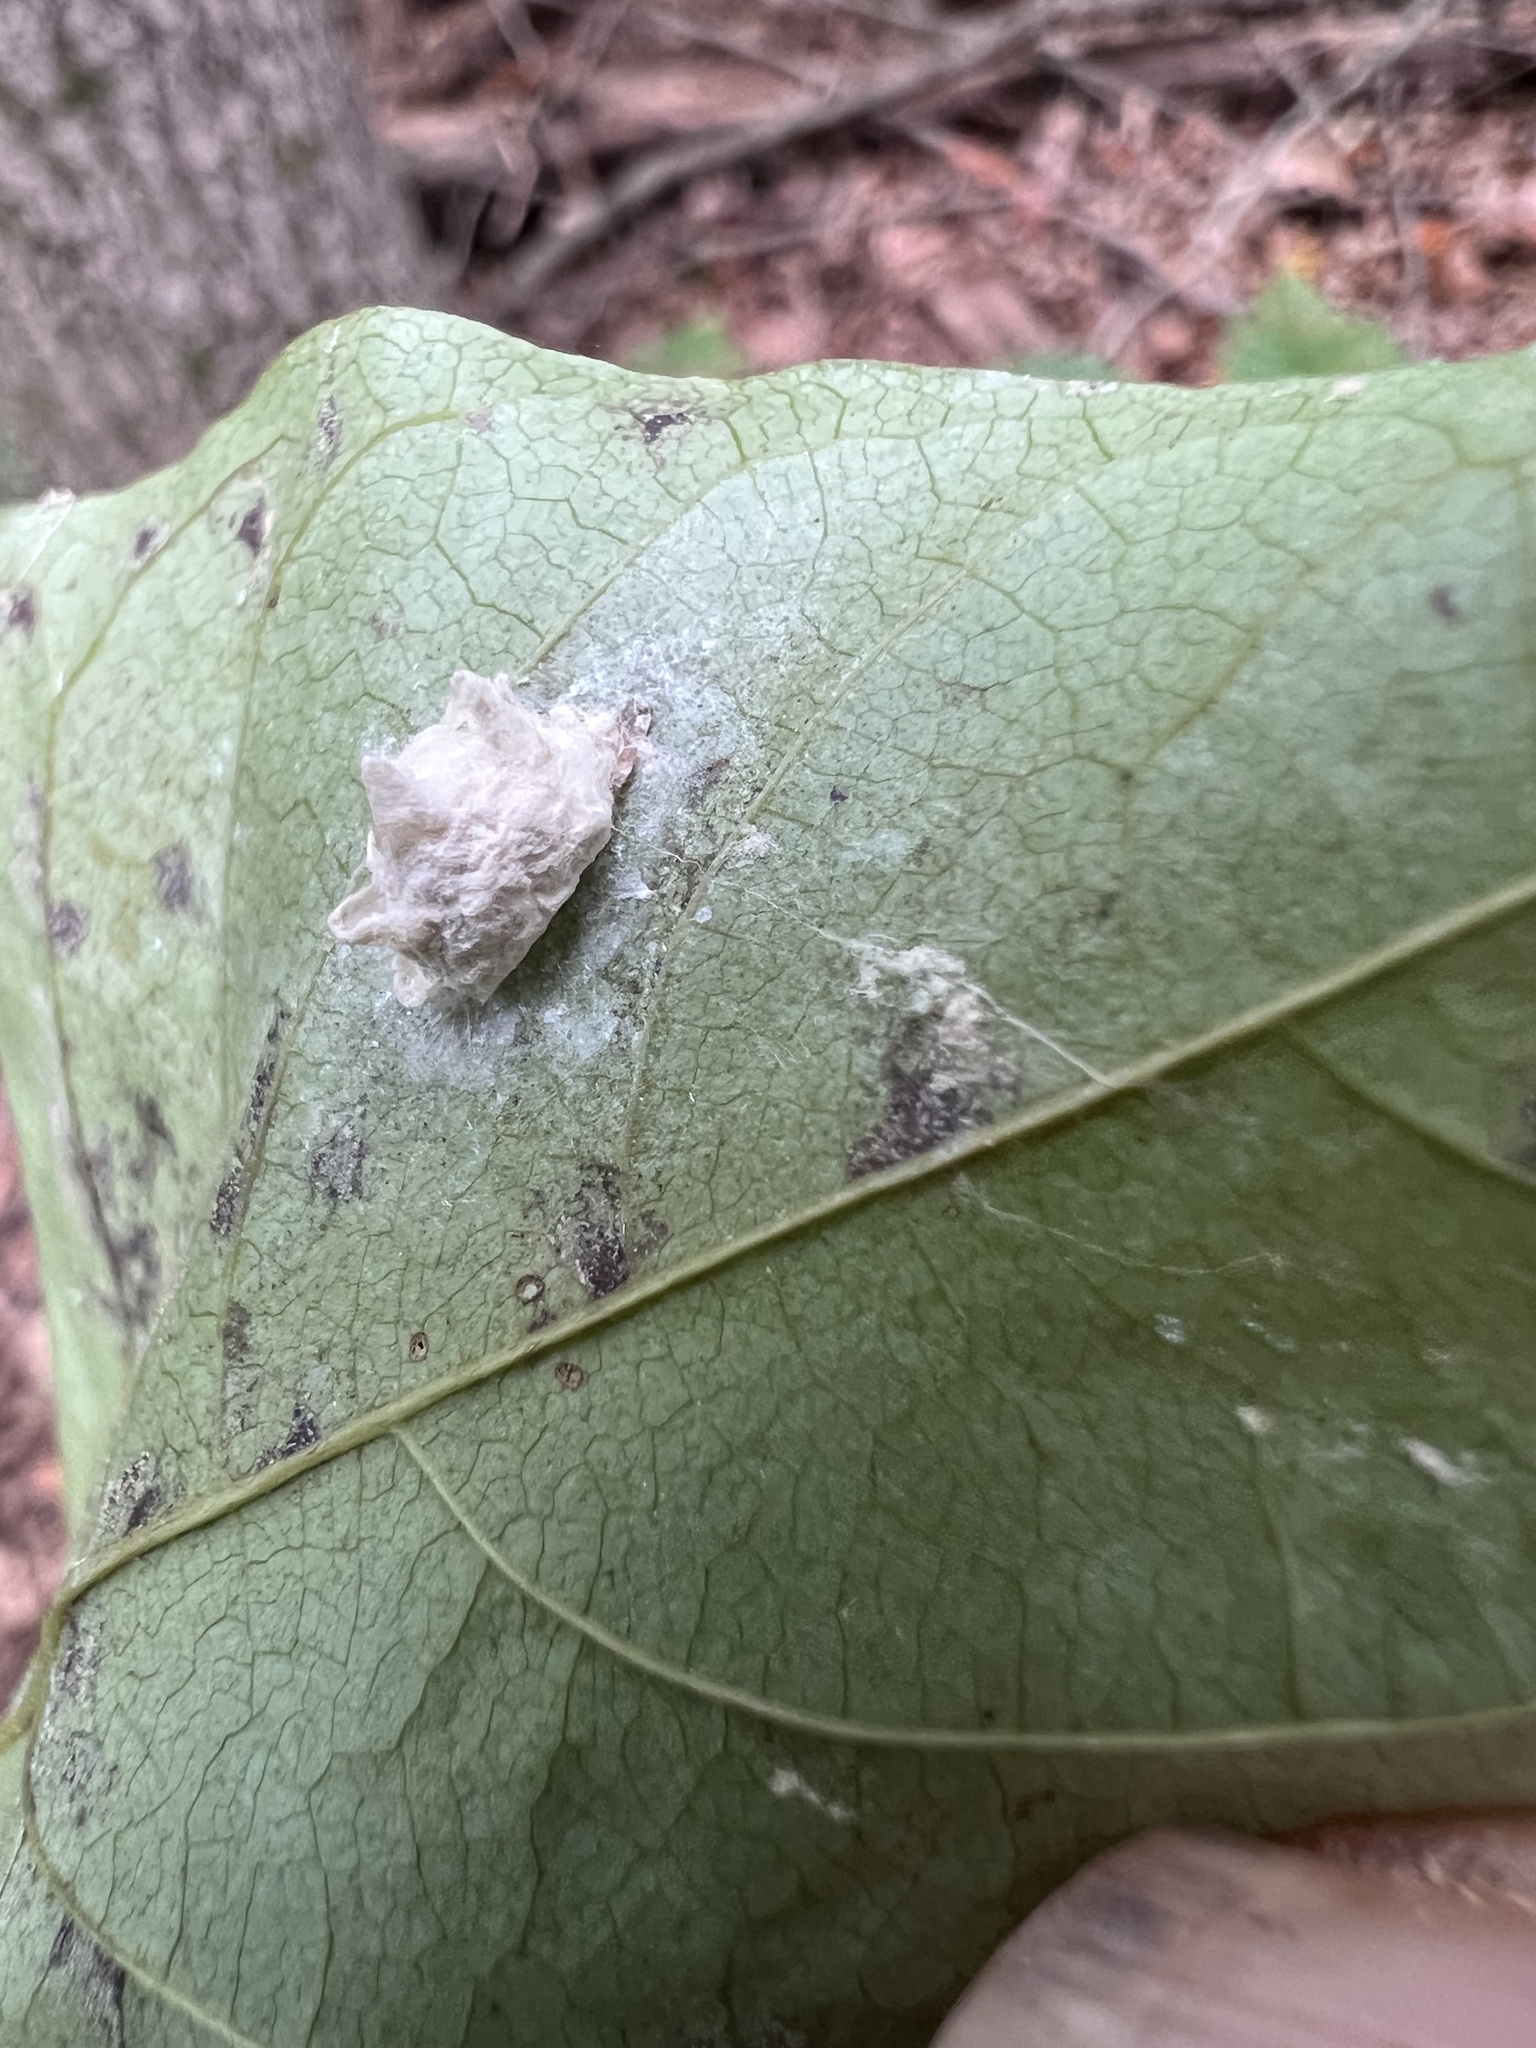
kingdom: Animalia
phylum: Arthropoda
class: Insecta
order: Lepidoptera
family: Epipyropidae
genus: Fulgoraecia
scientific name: Fulgoraecia exigua
